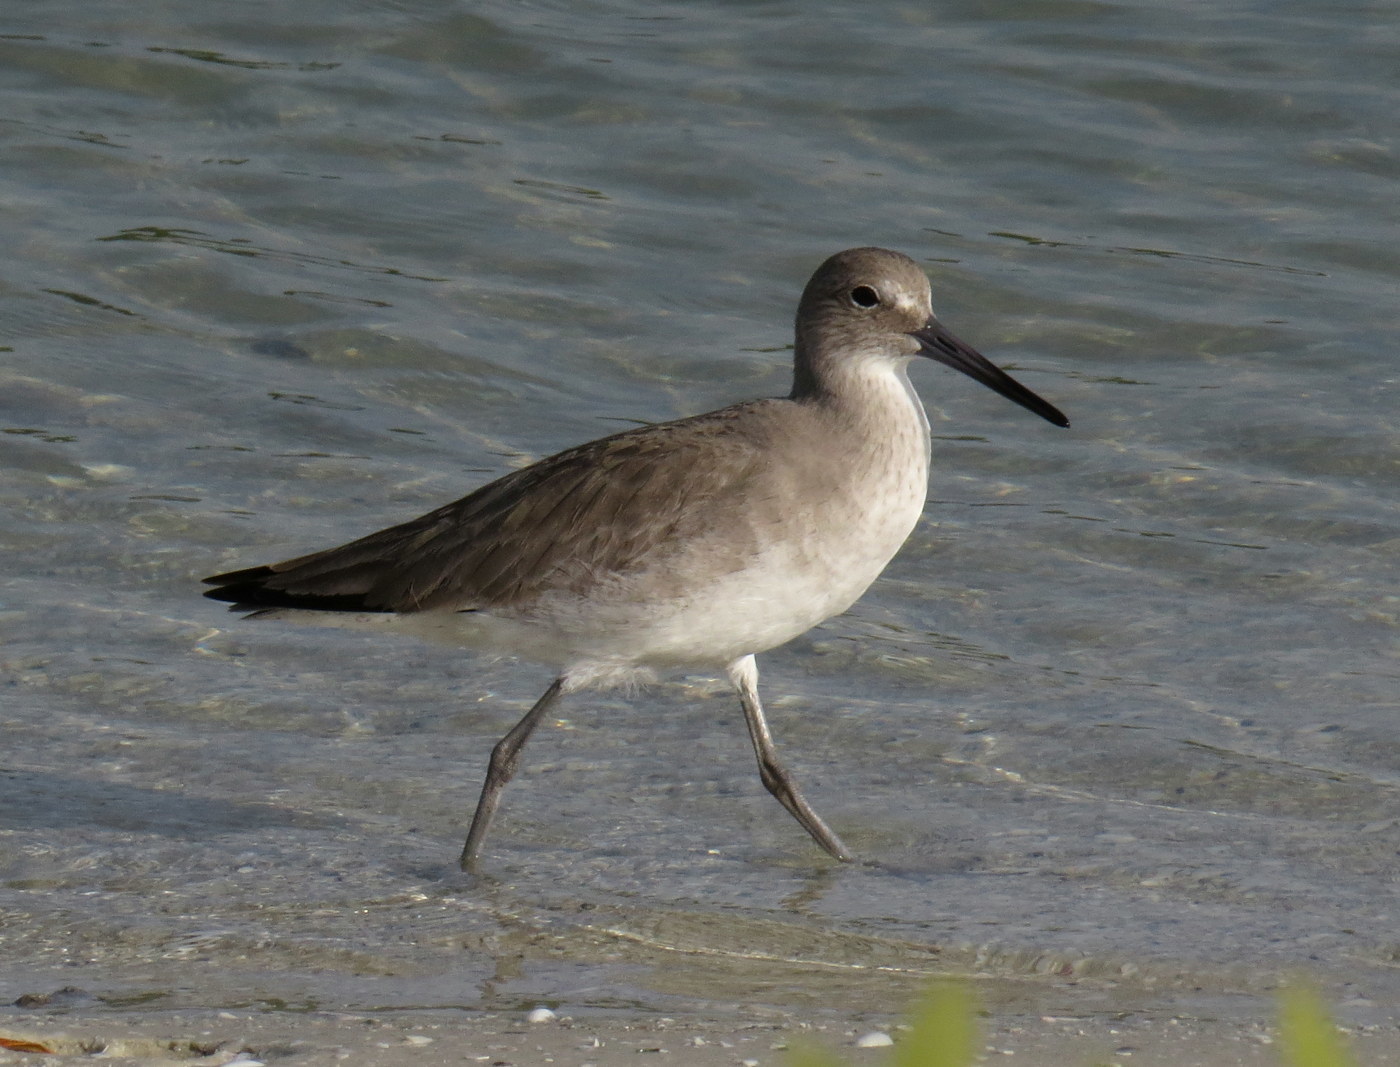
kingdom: Animalia
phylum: Chordata
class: Aves
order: Charadriiformes
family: Scolopacidae
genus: Tringa
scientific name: Tringa semipalmata
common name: Willet
